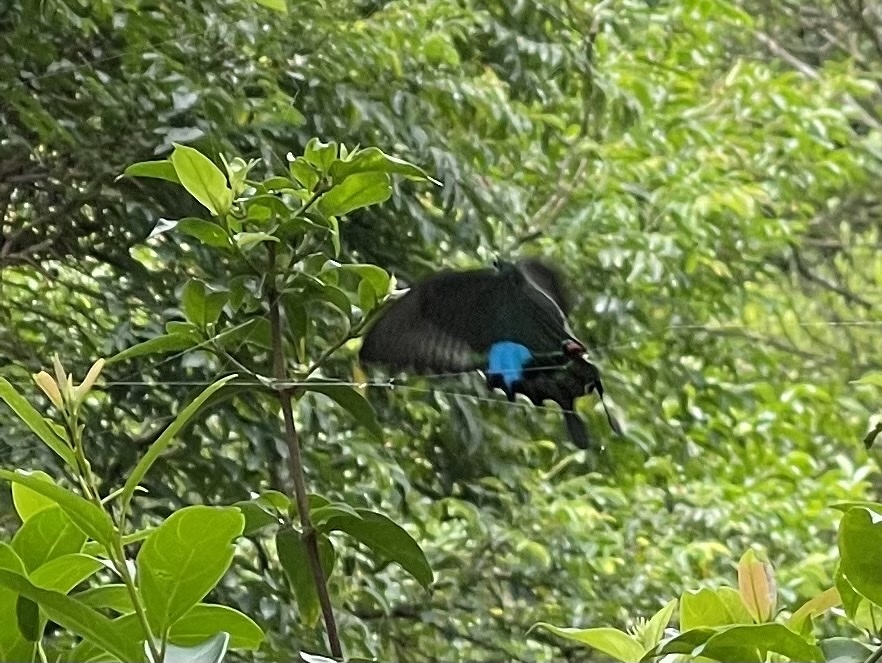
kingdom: Animalia
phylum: Arthropoda
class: Insecta
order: Lepidoptera
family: Papilionidae
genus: Papilio
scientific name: Papilio paris
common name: Paris peacock
